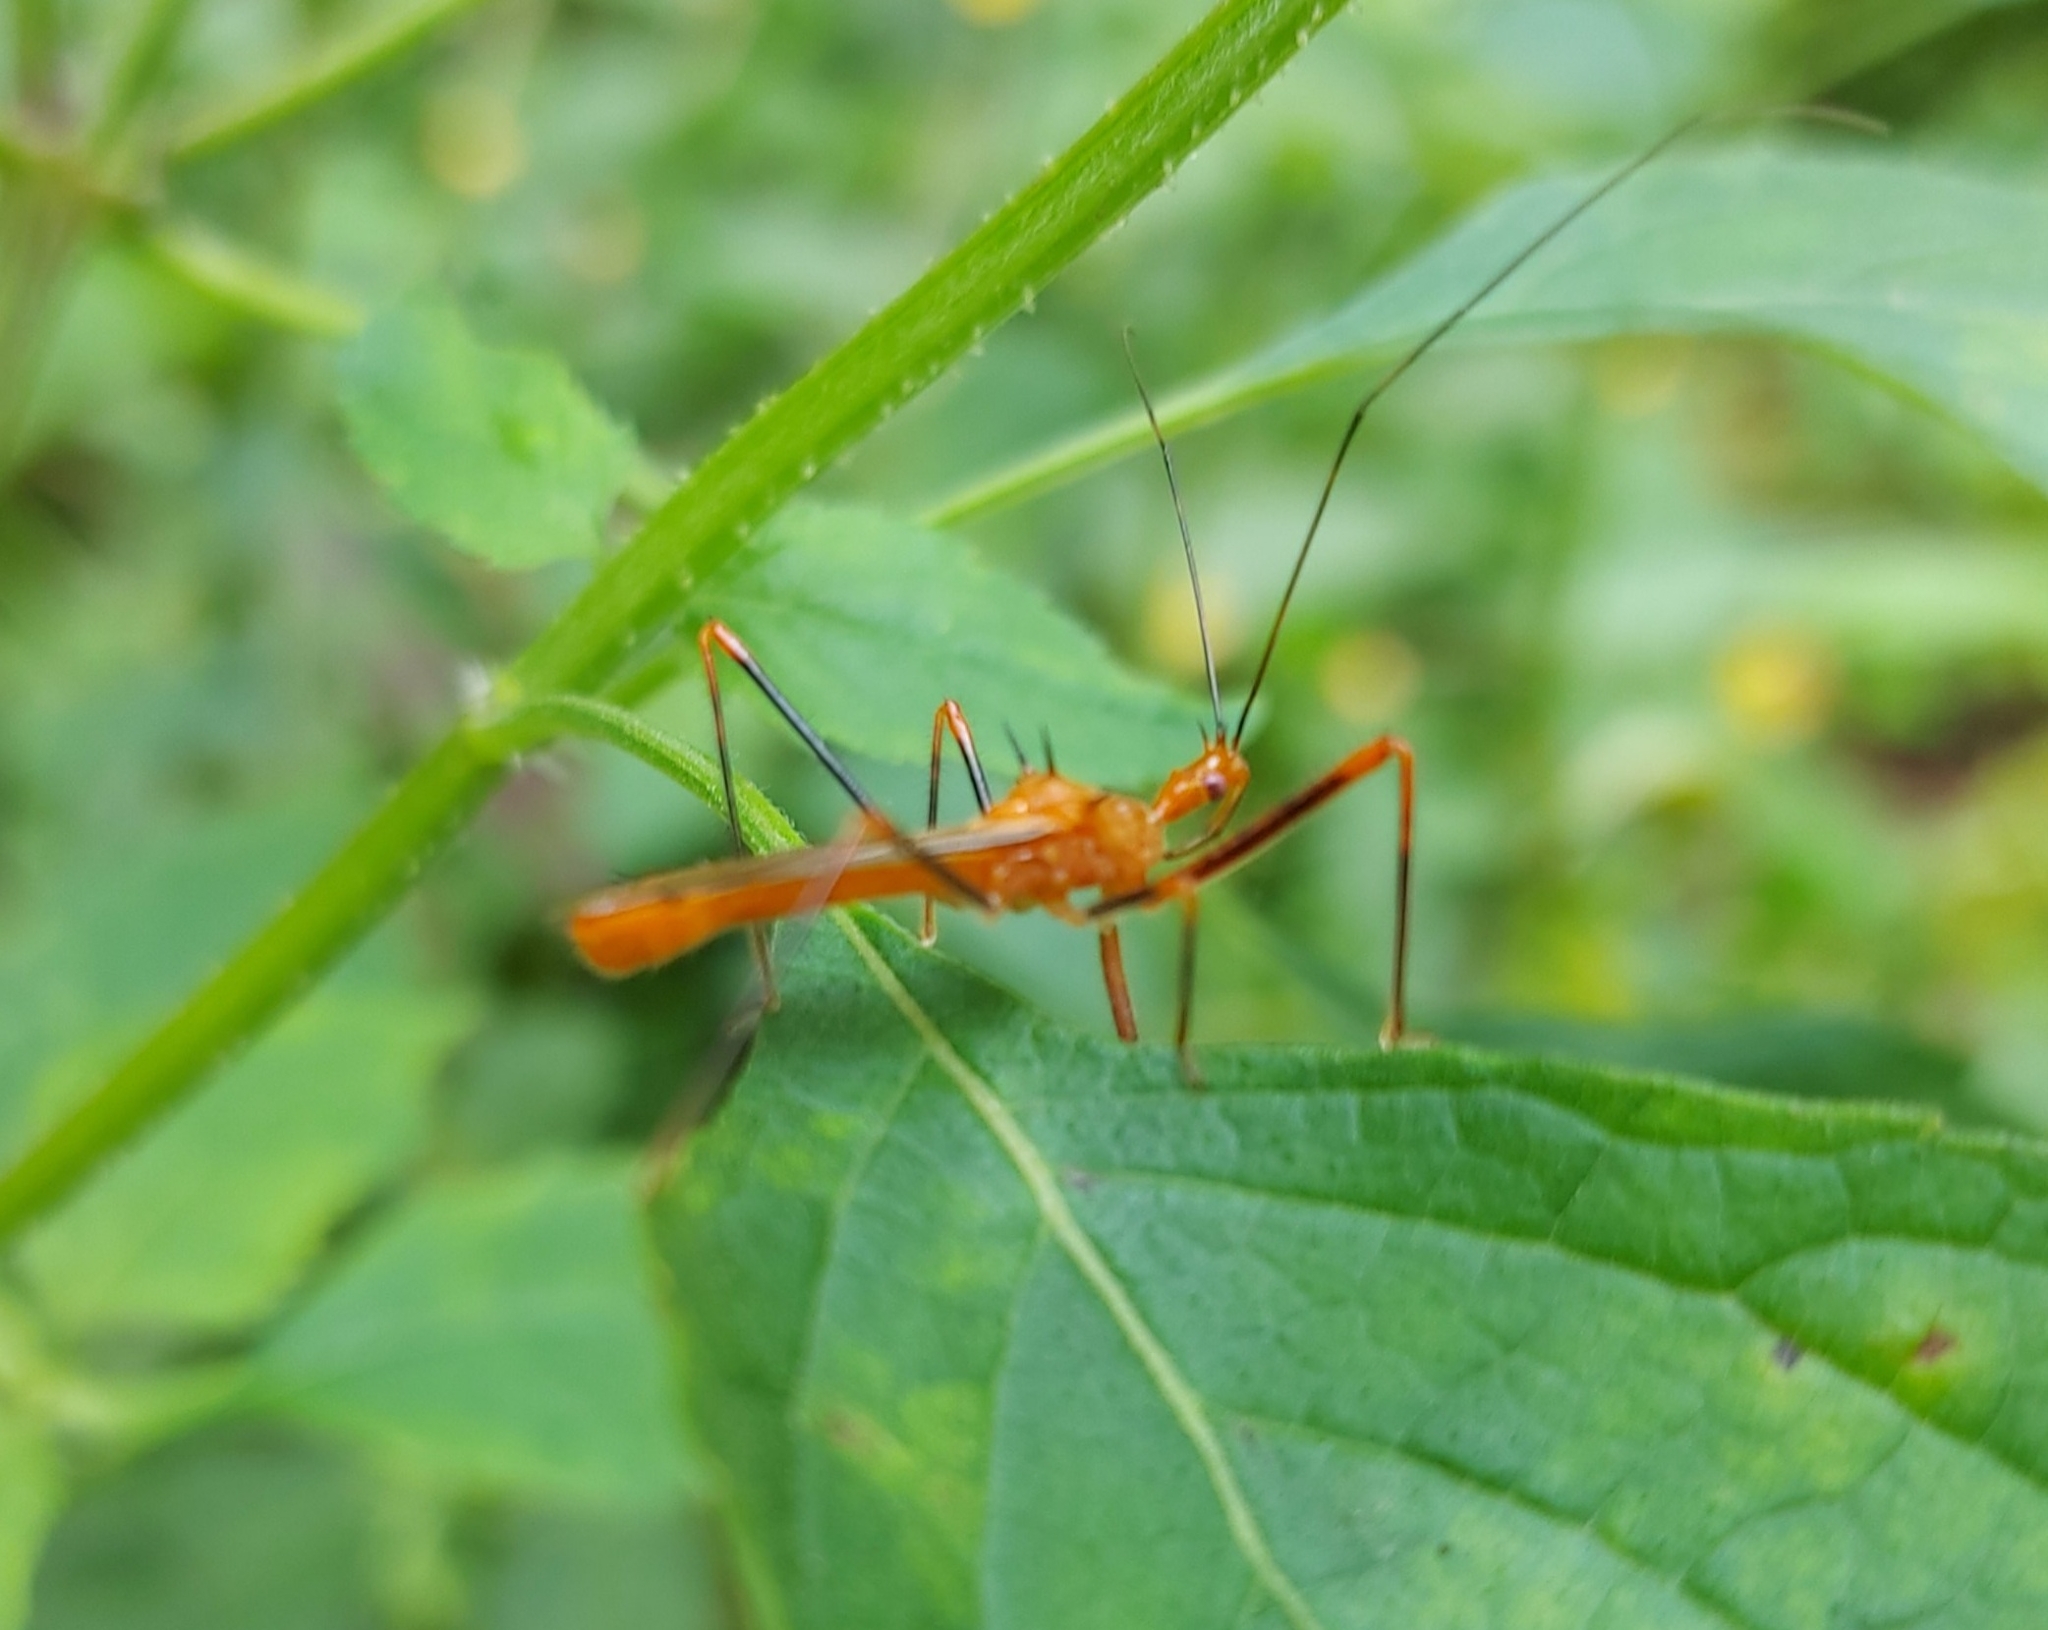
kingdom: Animalia
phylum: Arthropoda
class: Insecta
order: Hemiptera
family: Reduviidae
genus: Ricolla
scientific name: Ricolla quadrispinosa
